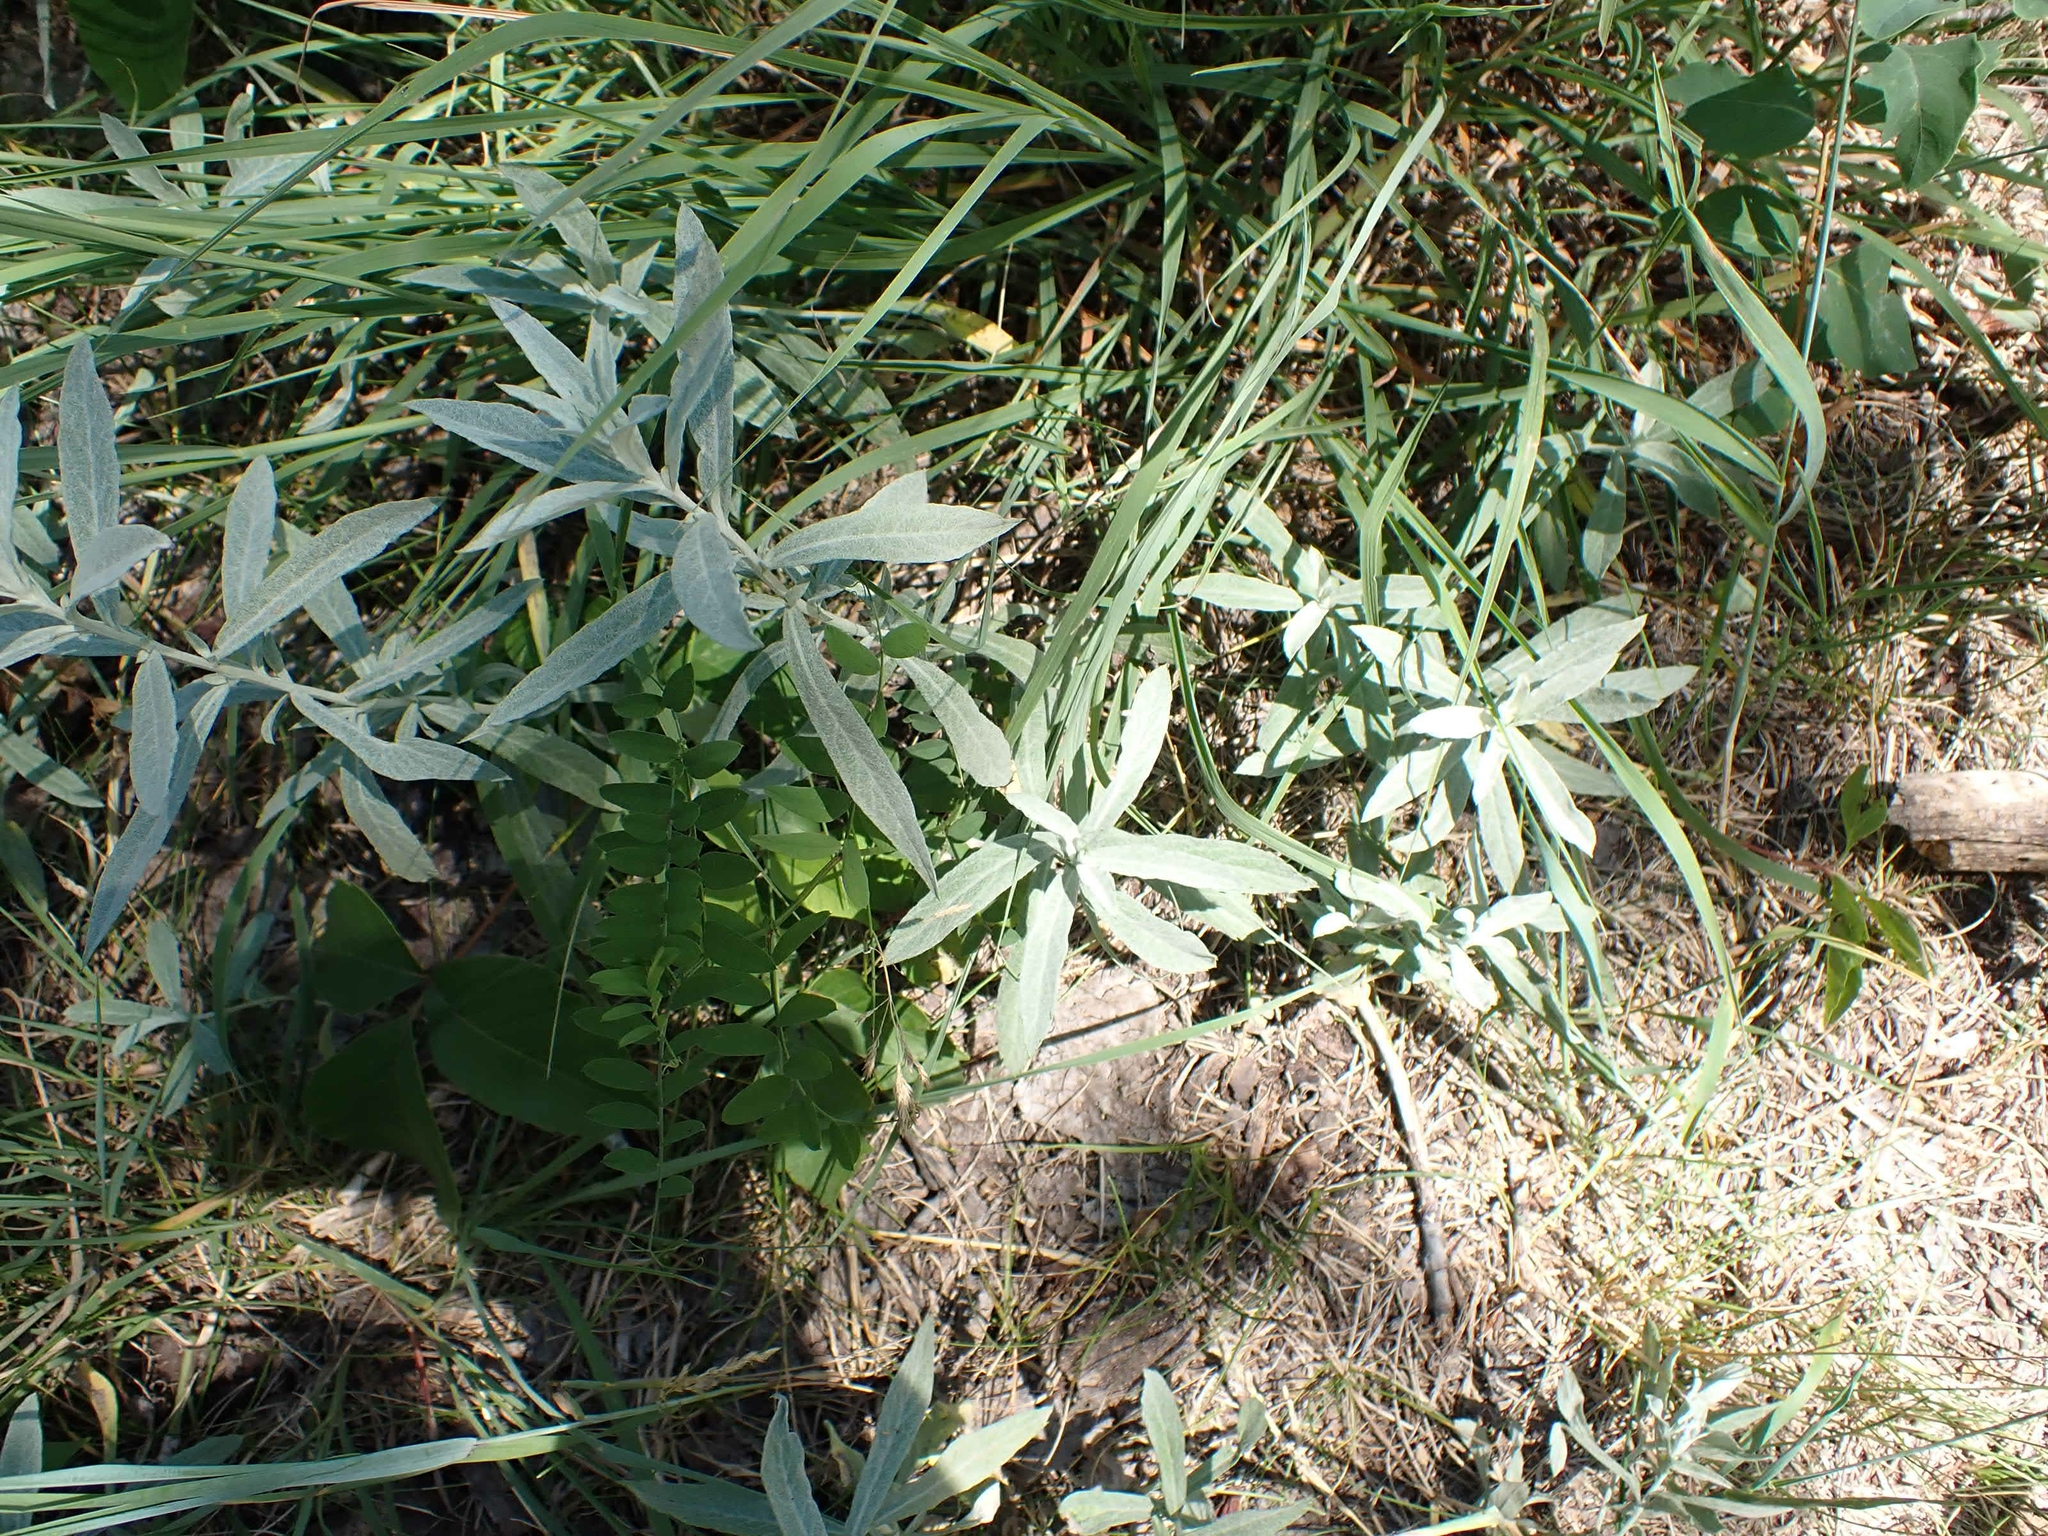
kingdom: Plantae
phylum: Tracheophyta
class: Magnoliopsida
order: Asterales
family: Asteraceae
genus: Artemisia
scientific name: Artemisia ludoviciana
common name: Western mugwort
